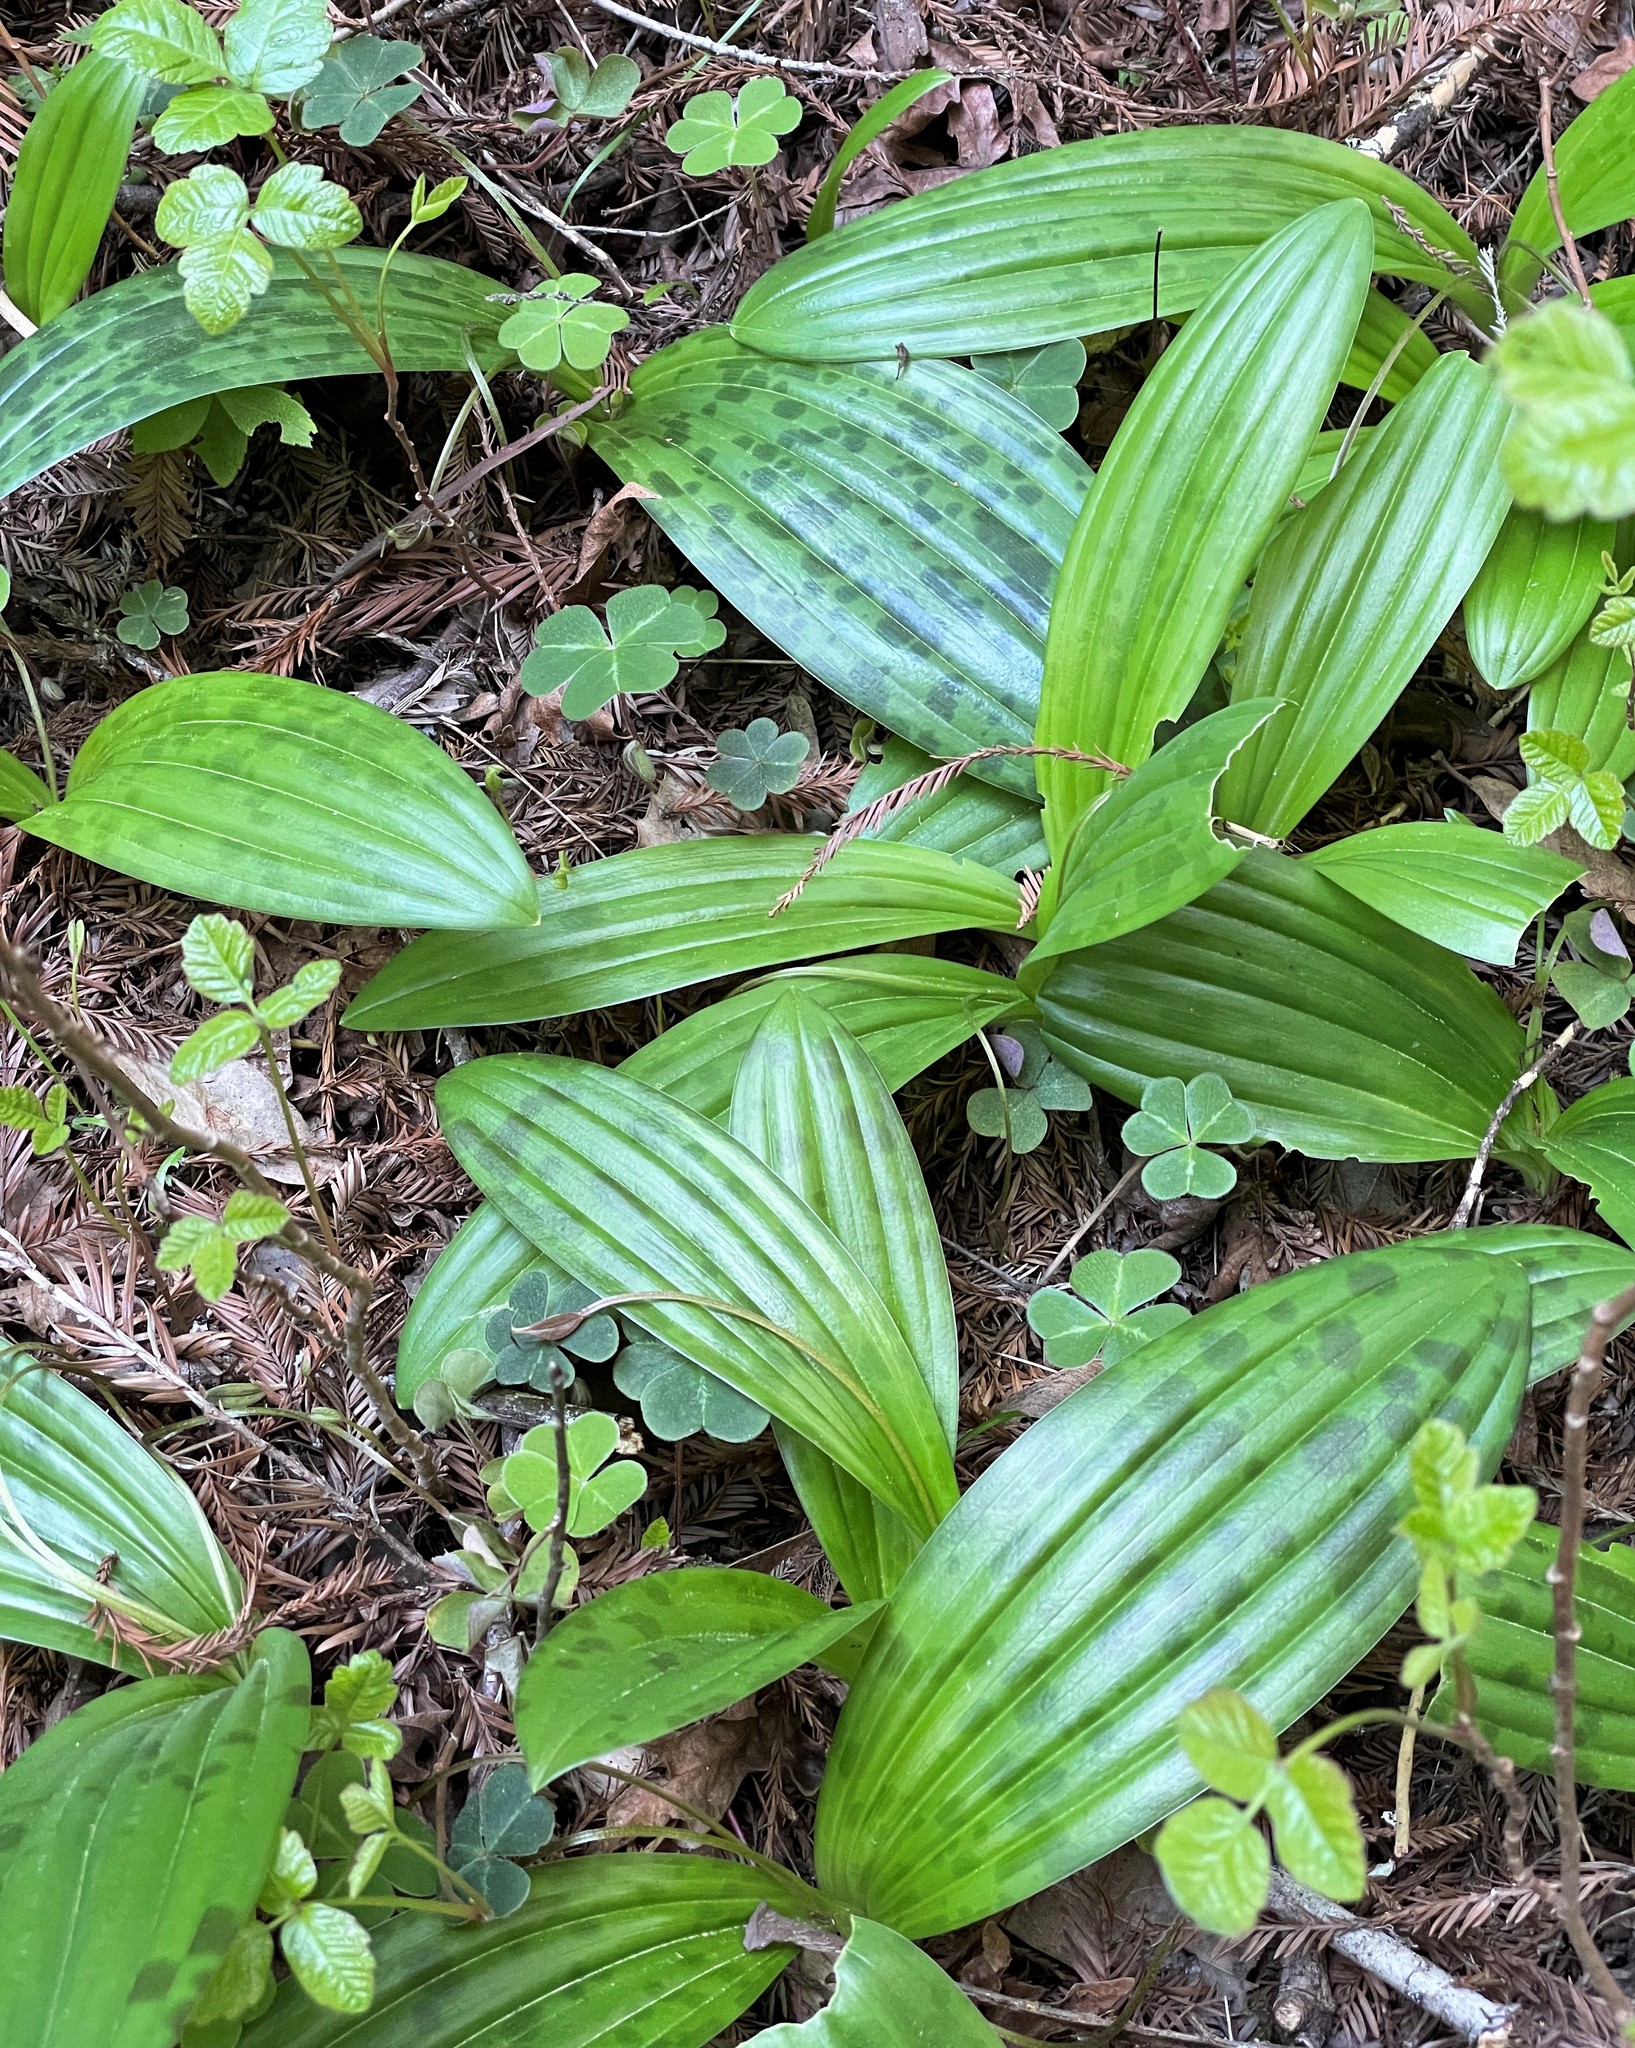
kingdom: Plantae
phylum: Tracheophyta
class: Liliopsida
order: Liliales
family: Liliaceae
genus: Scoliopus
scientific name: Scoliopus bigelovii
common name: Foetid adder's-tongue
